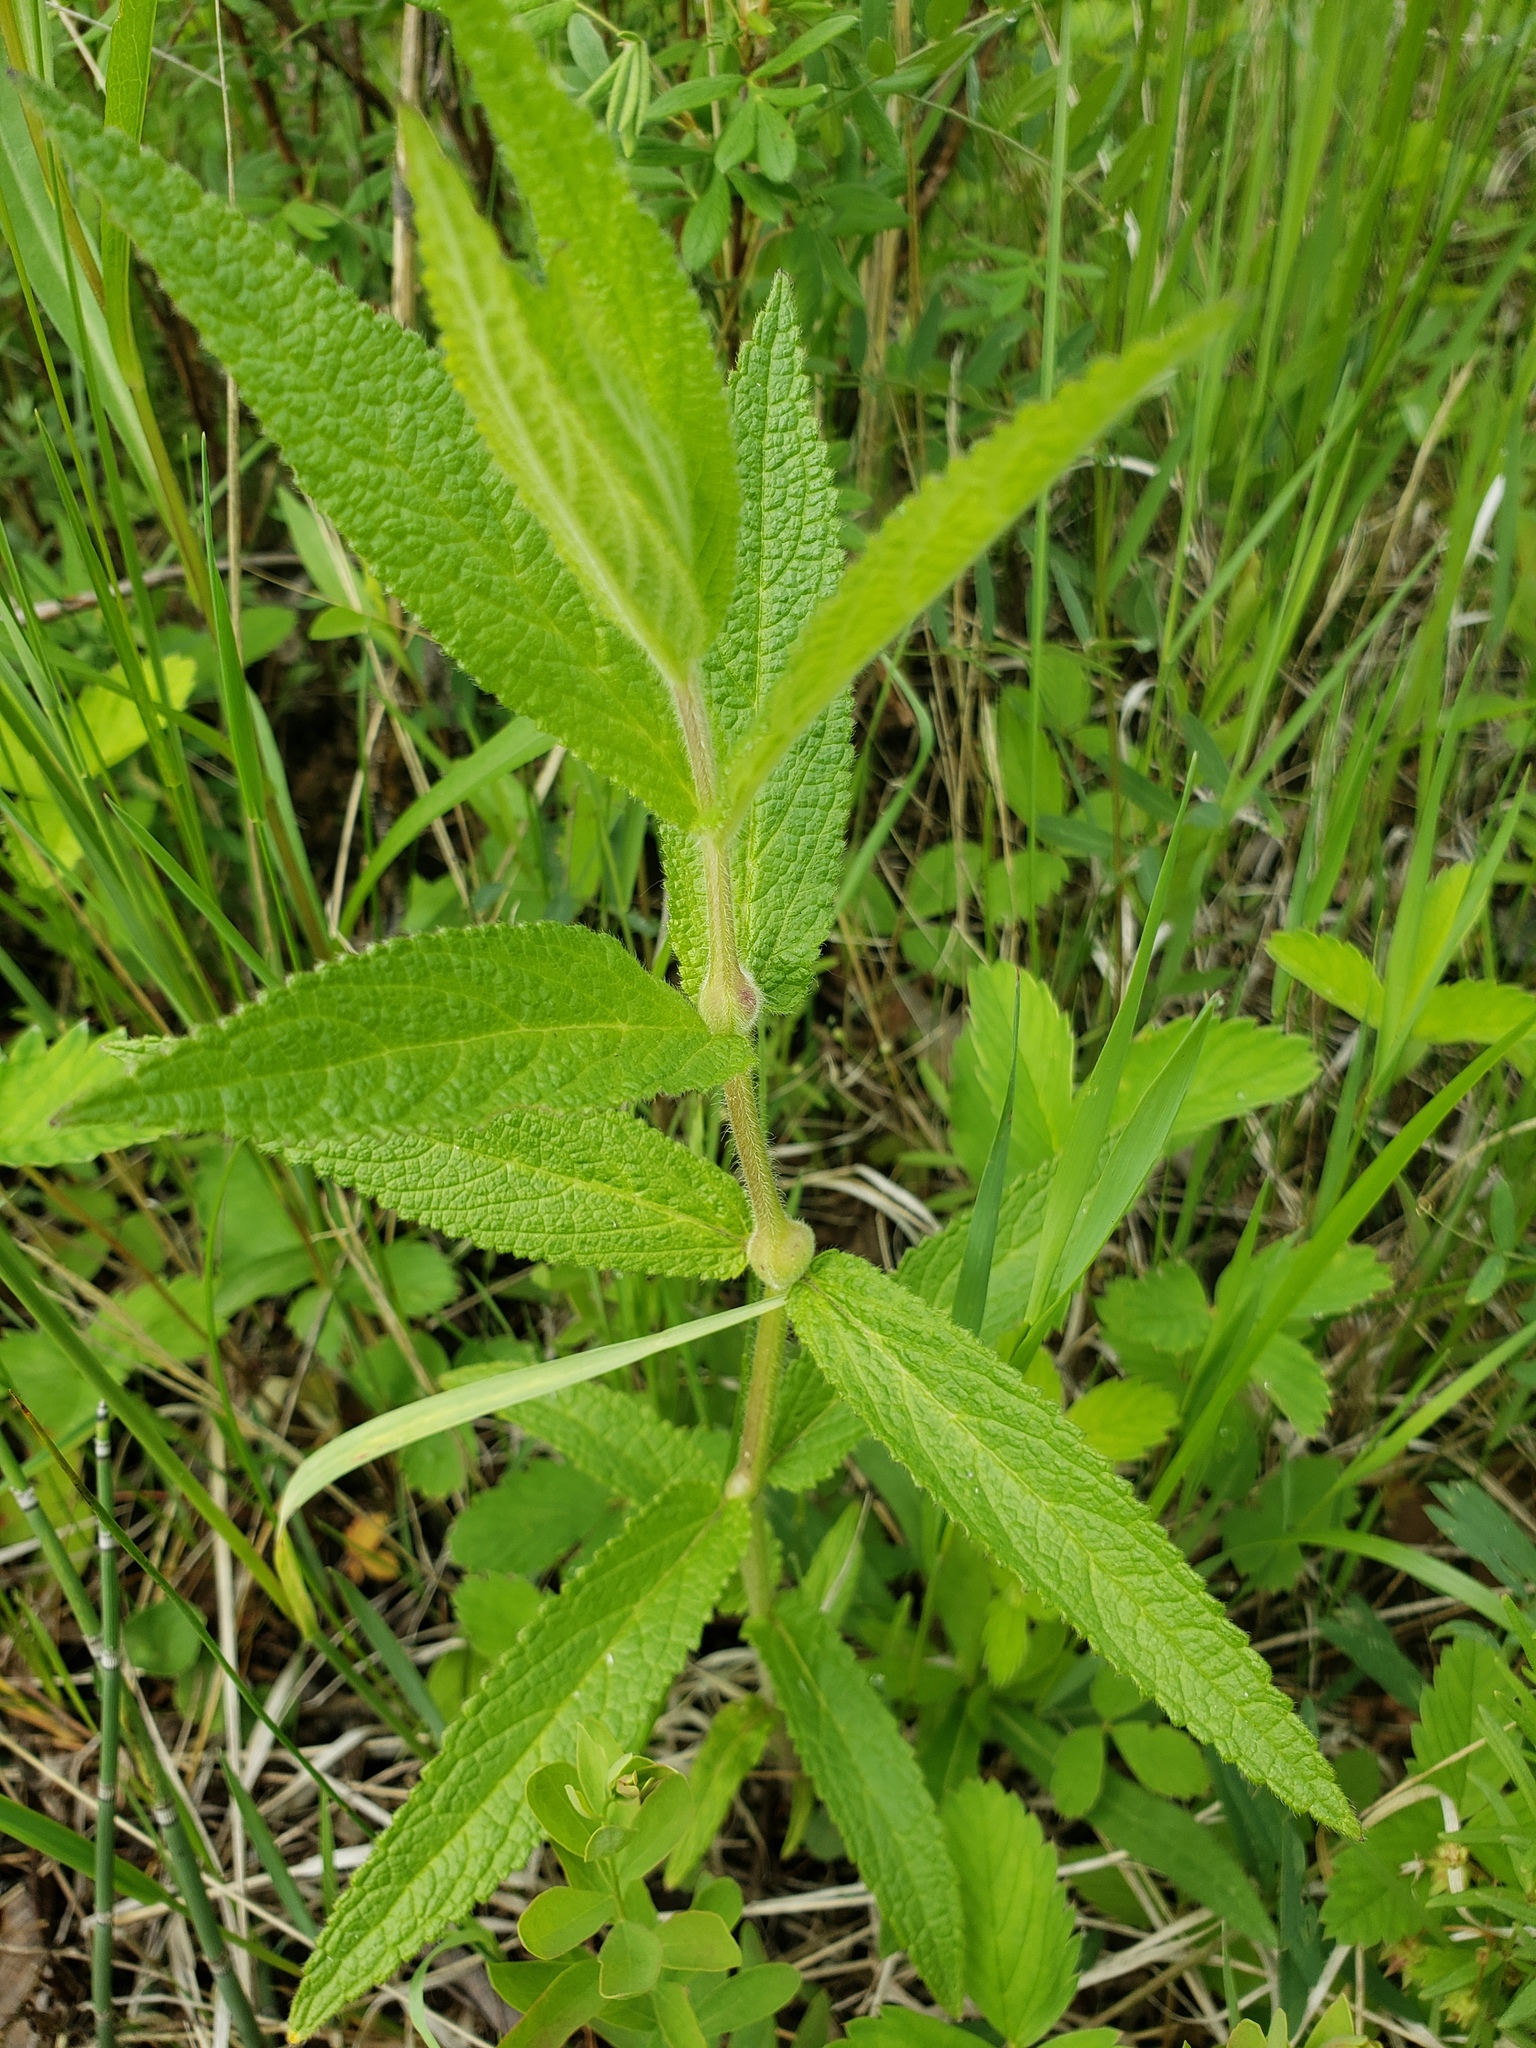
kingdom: Plantae
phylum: Tracheophyta
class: Magnoliopsida
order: Lamiales
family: Lamiaceae
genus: Stachys
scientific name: Stachys palustris
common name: Marsh woundwort
